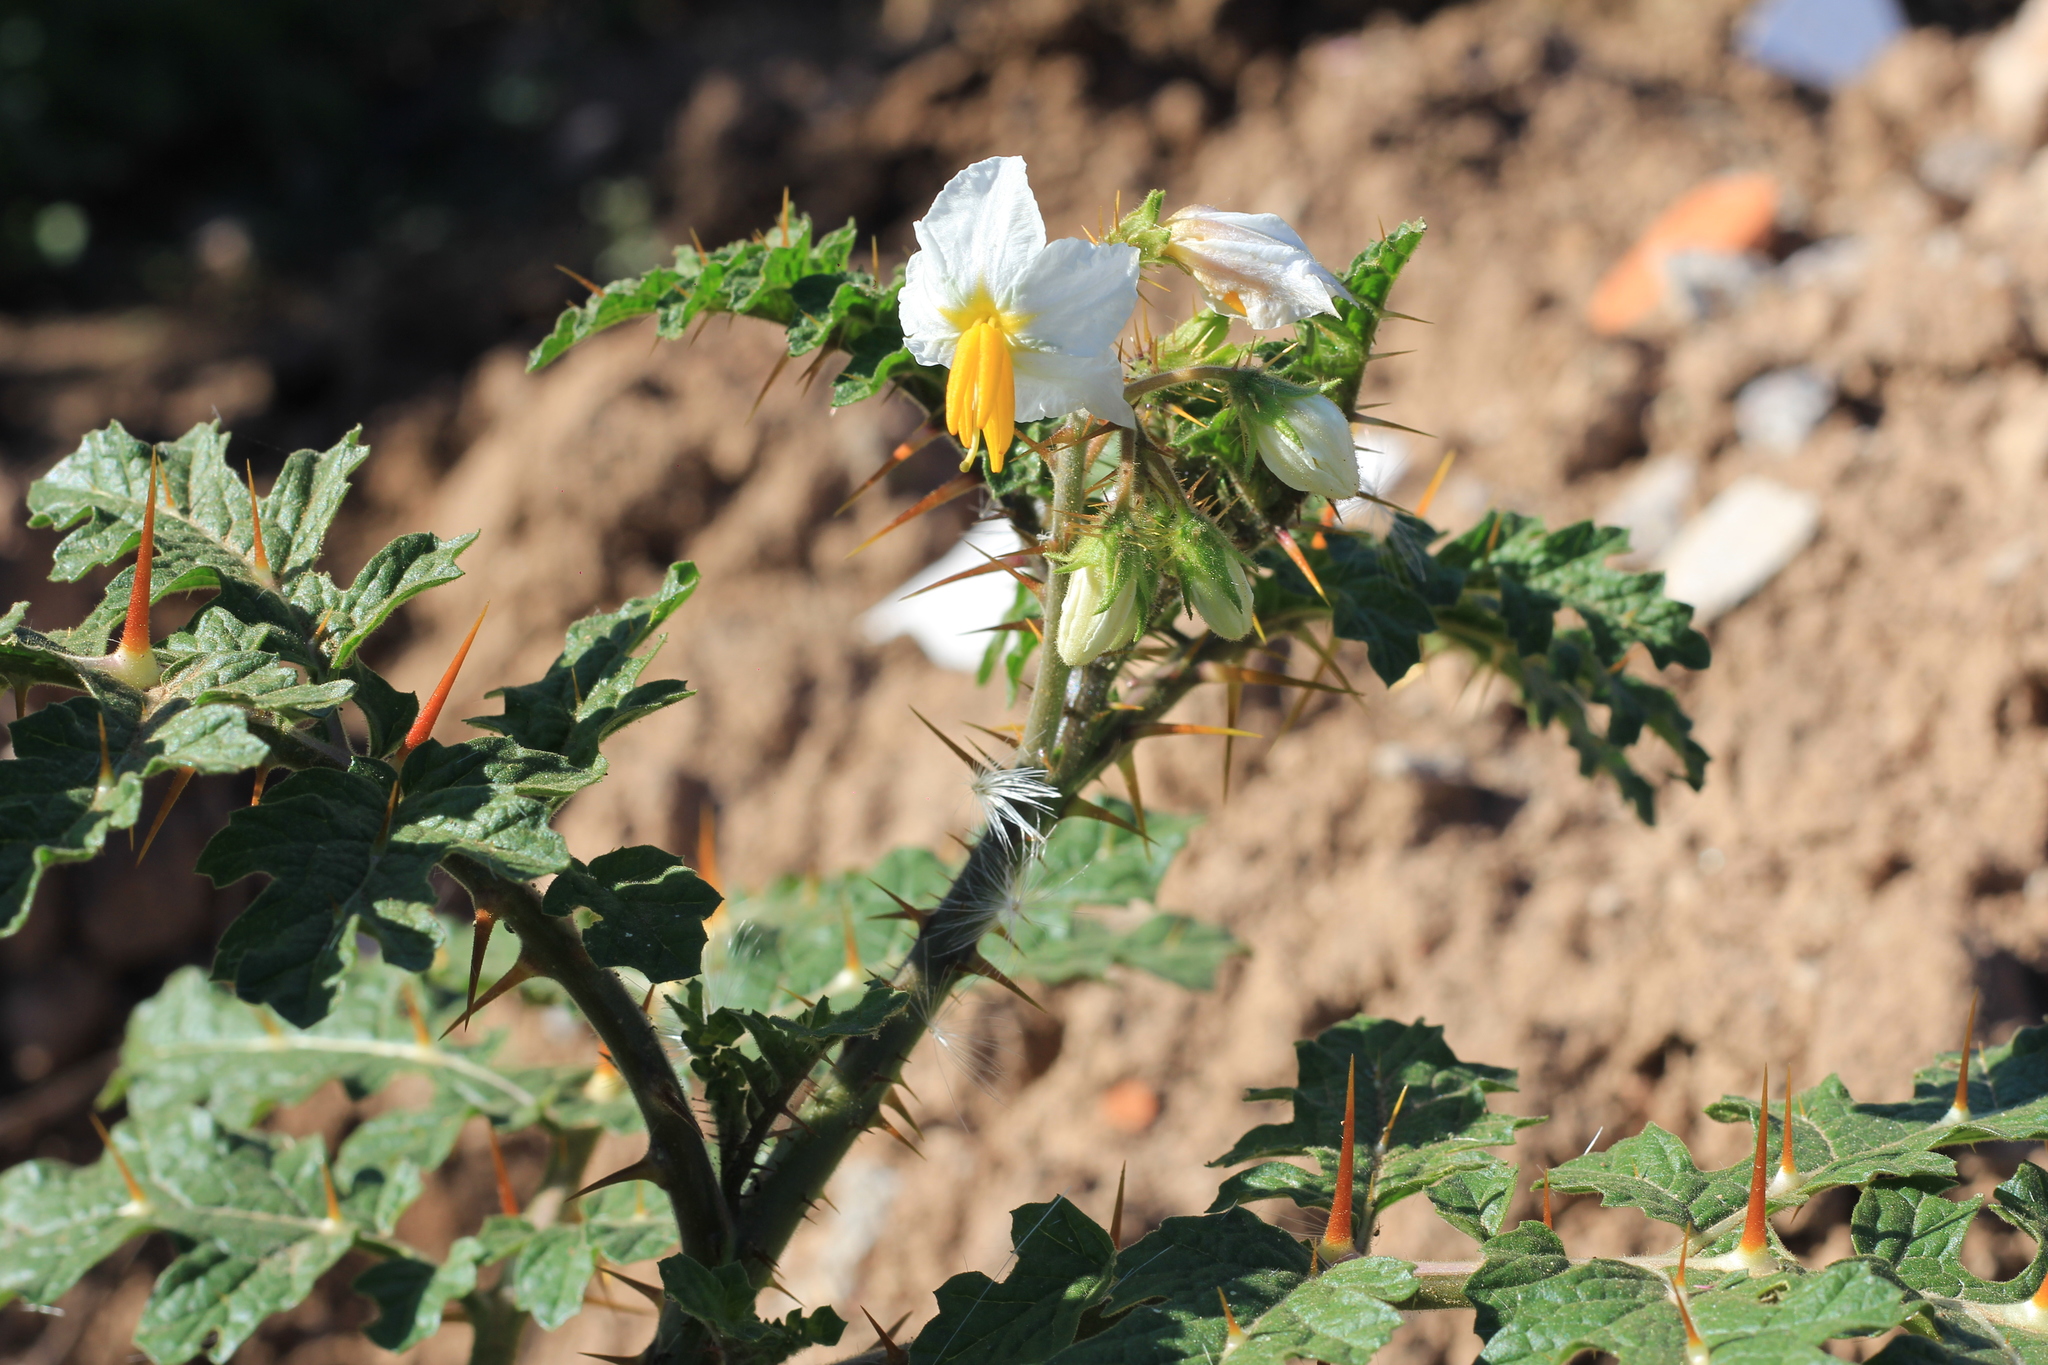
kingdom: Plantae
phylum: Tracheophyta
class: Magnoliopsida
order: Solanales
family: Solanaceae
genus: Solanum
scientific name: Solanum sisymbriifolium
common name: Red buffalo-bur
